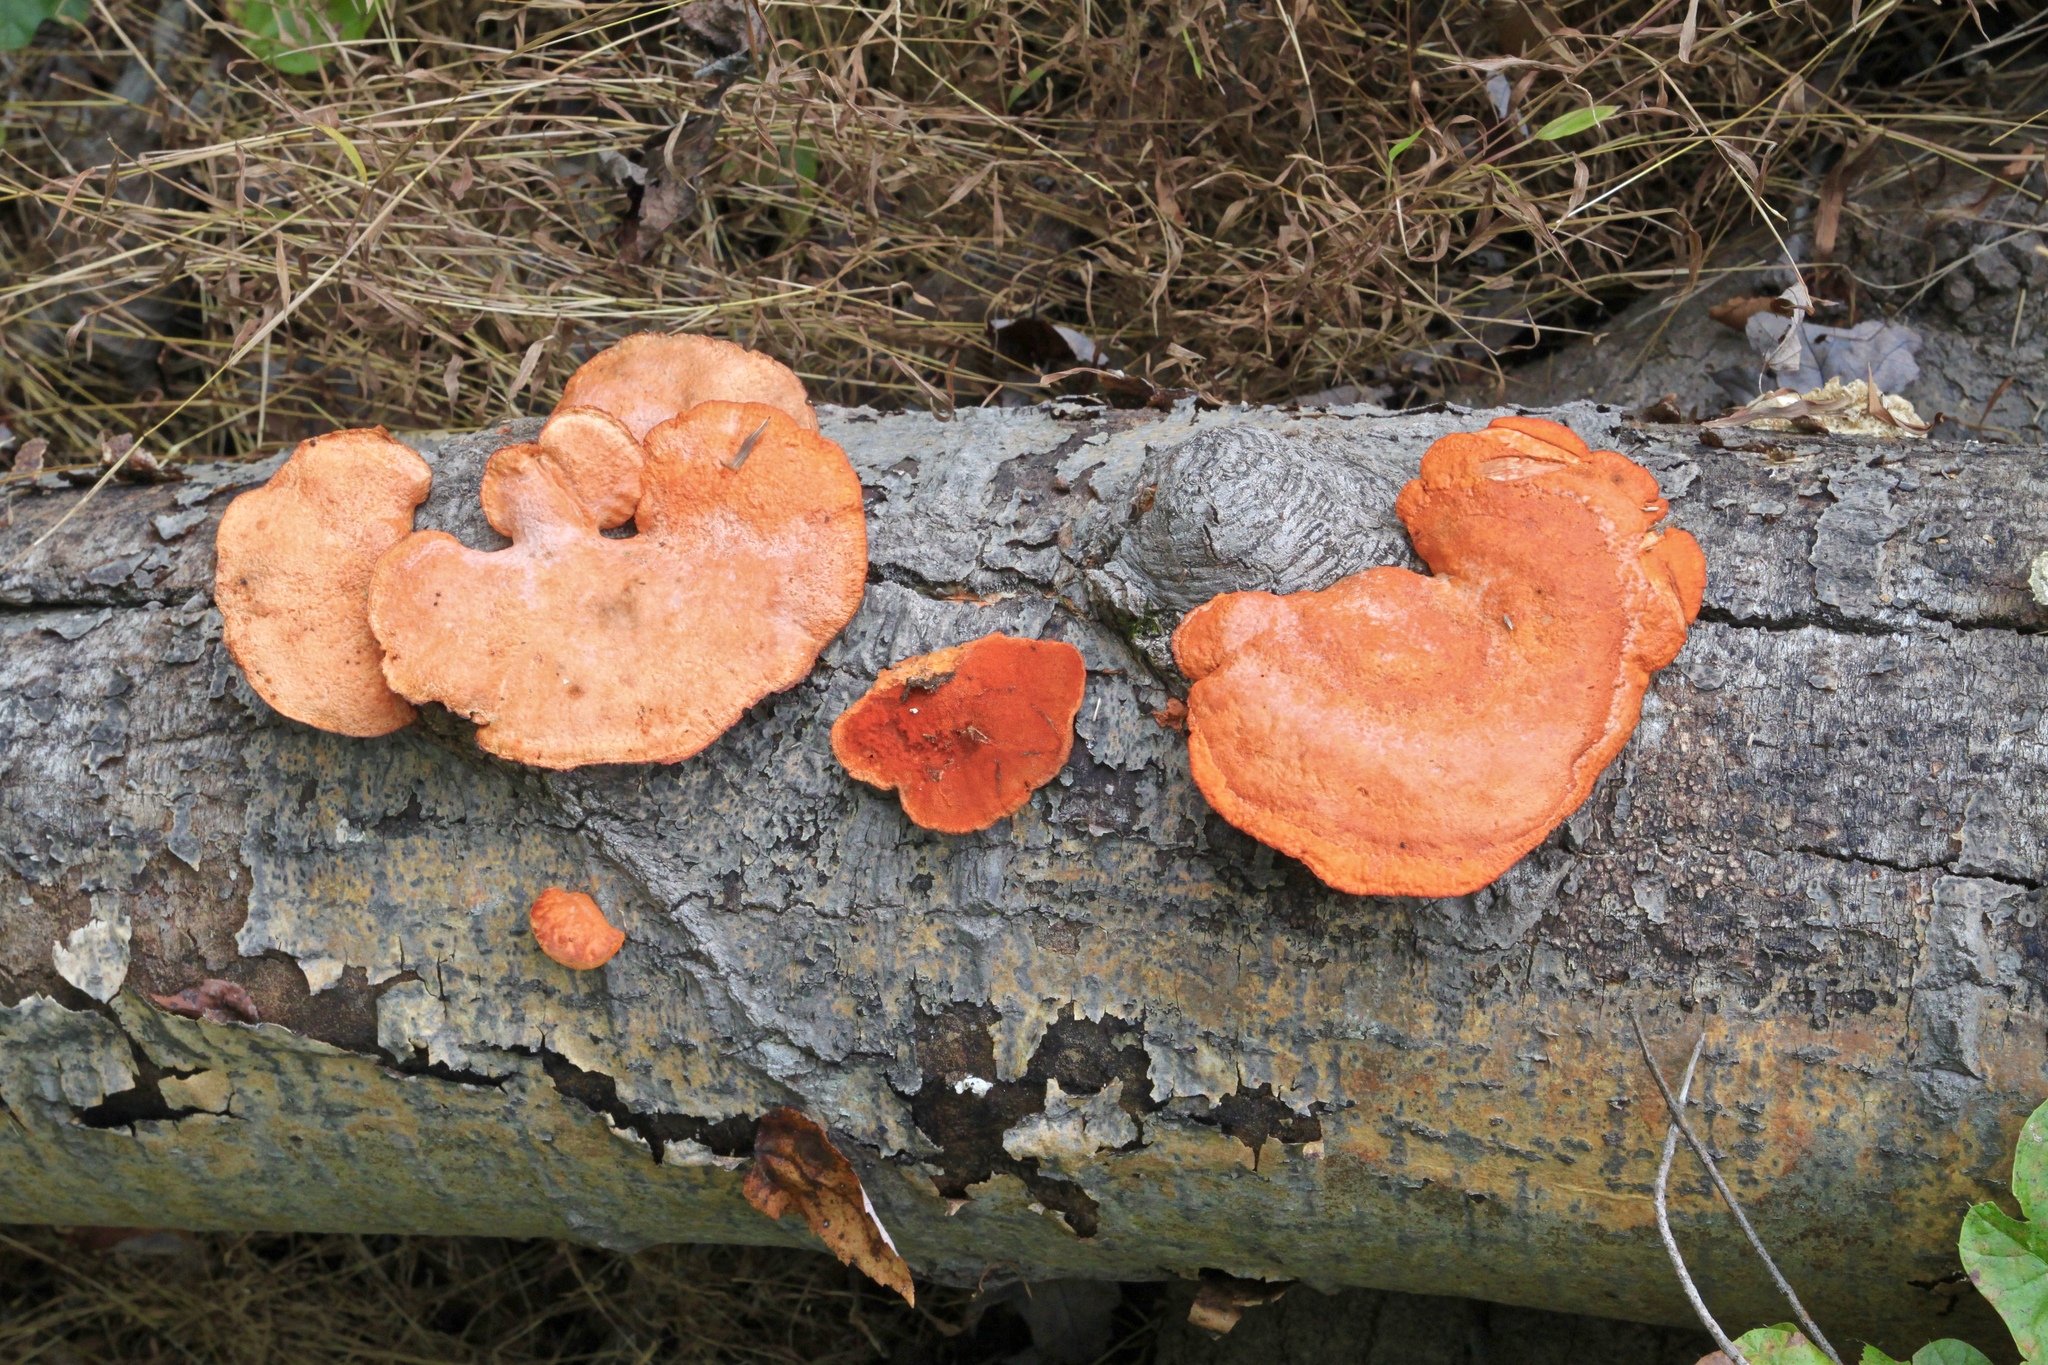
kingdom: Fungi
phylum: Basidiomycota
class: Agaricomycetes
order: Polyporales
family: Polyporaceae
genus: Trametes
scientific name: Trametes cinnabarina
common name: Northern cinnabar polypore
